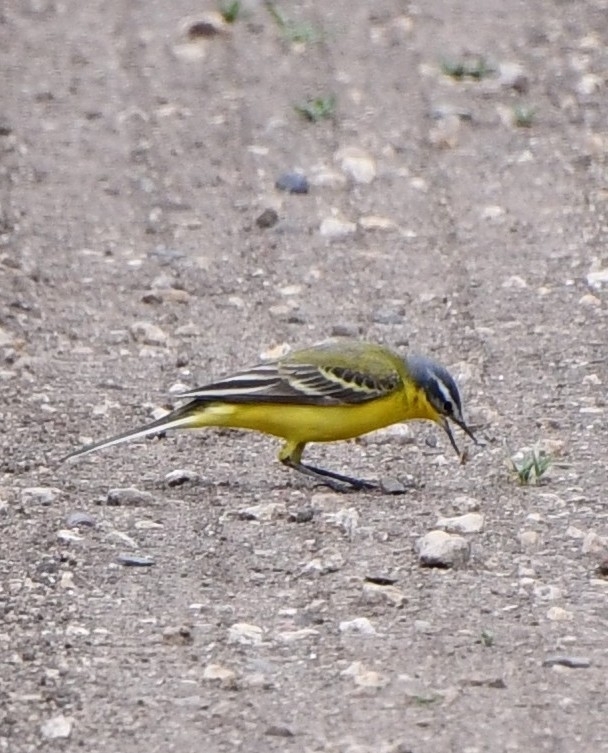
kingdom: Animalia
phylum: Chordata
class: Aves
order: Passeriformes
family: Motacillidae
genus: Motacilla
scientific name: Motacilla flava
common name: Western yellow wagtail
